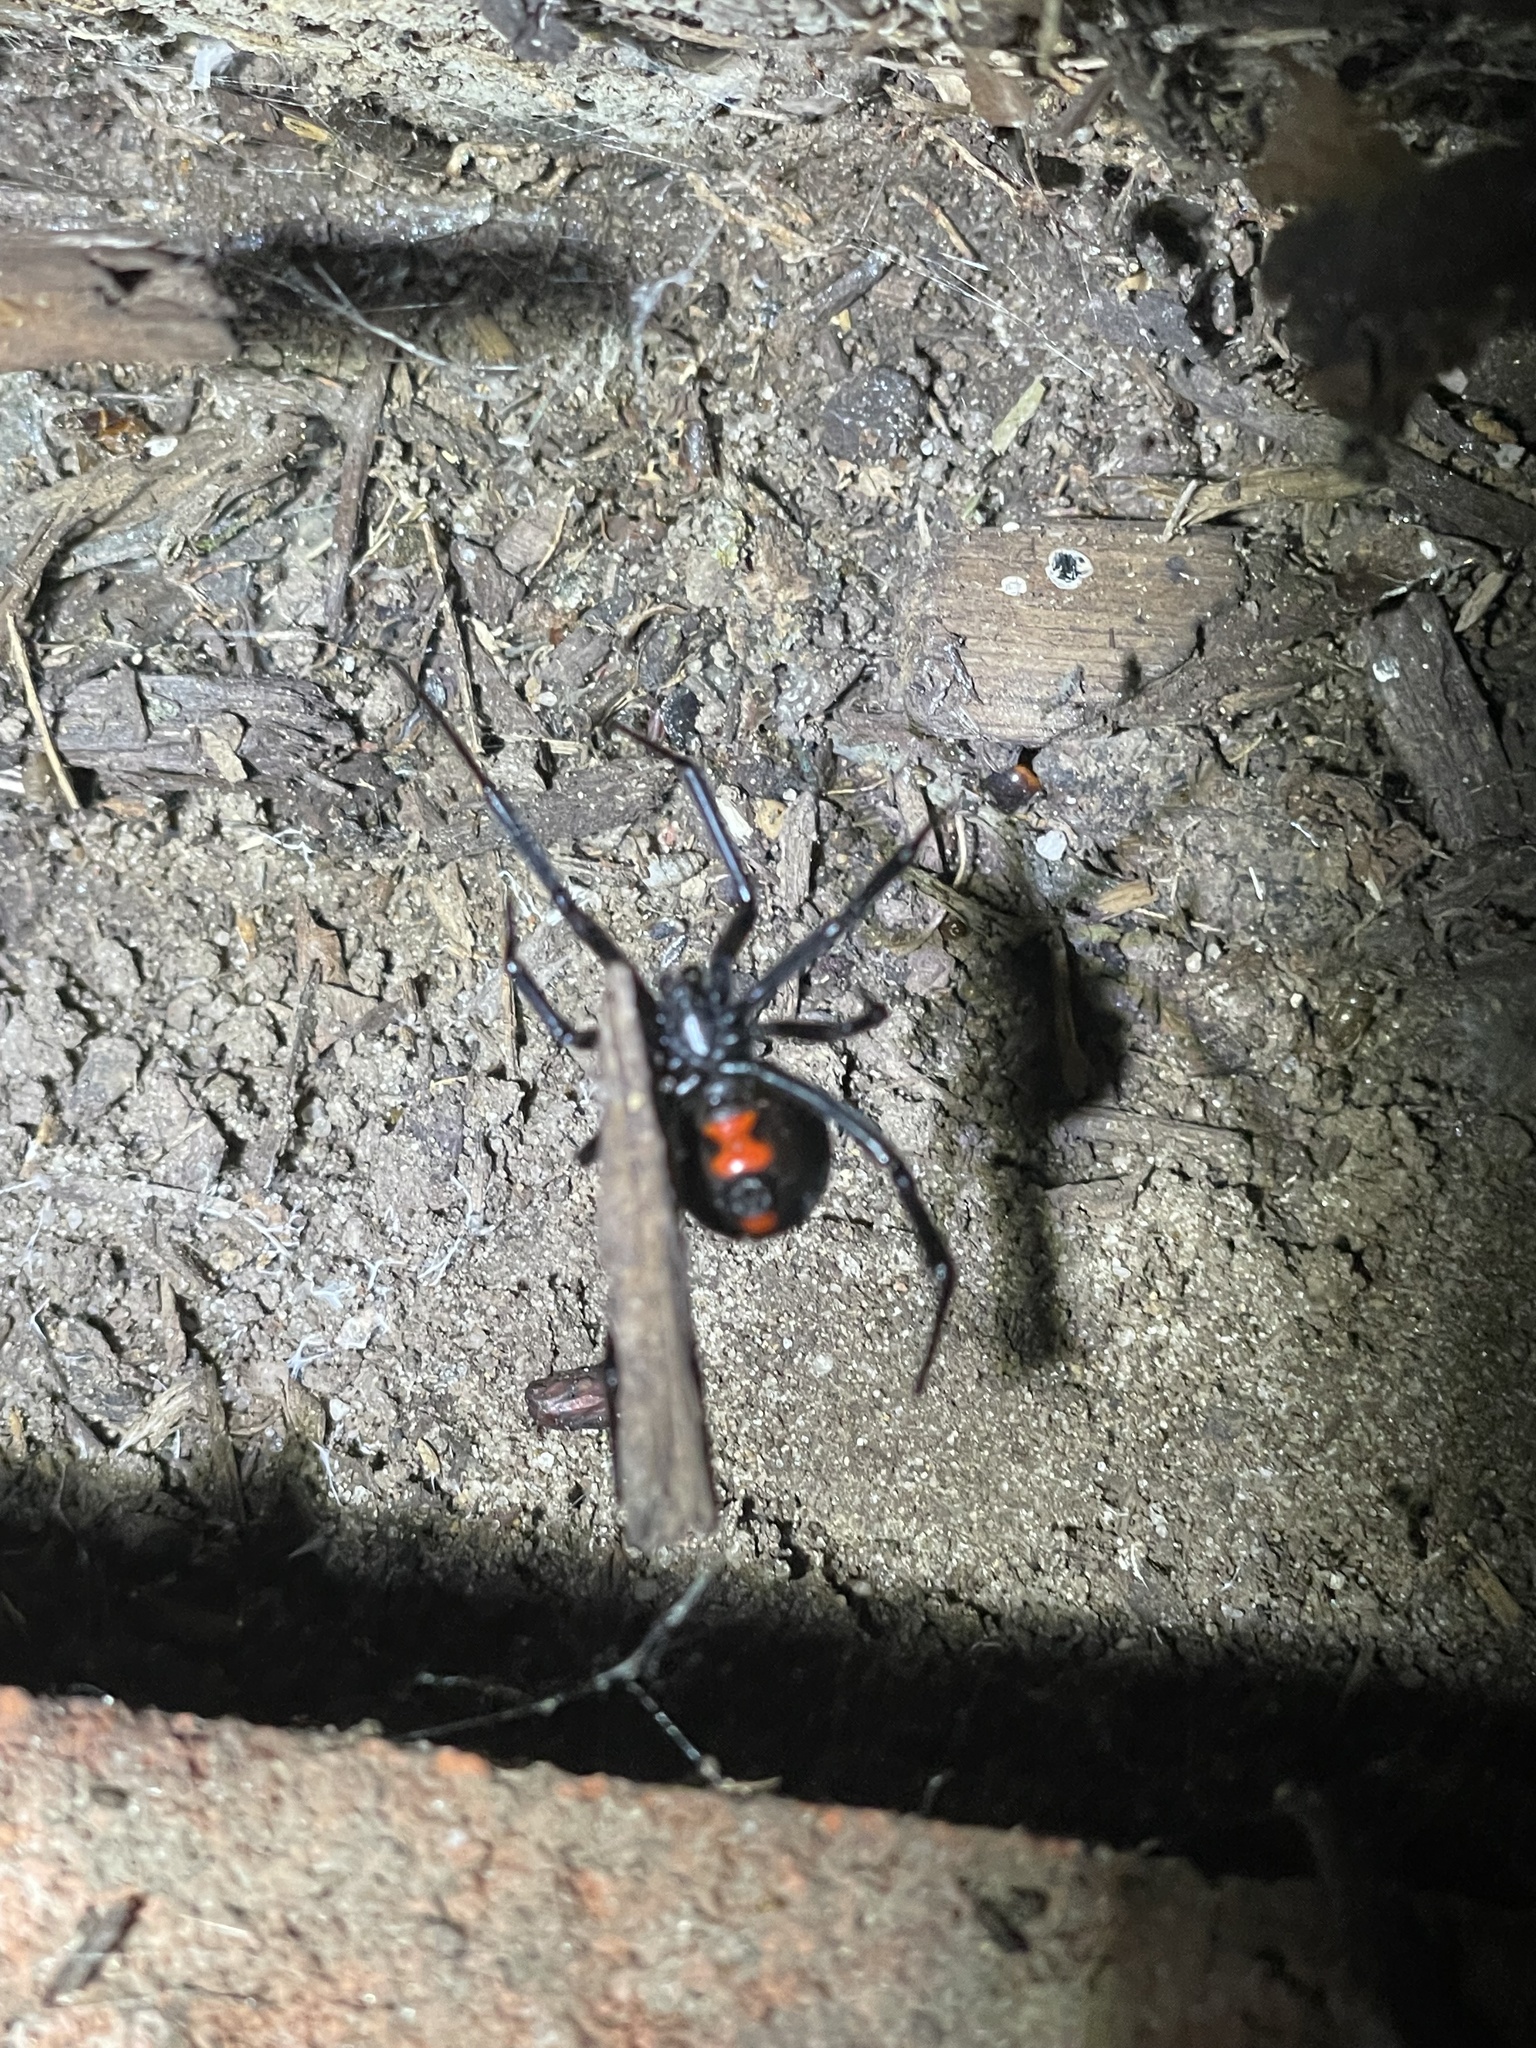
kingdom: Animalia
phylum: Arthropoda
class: Arachnida
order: Araneae
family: Theridiidae
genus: Latrodectus
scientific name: Latrodectus mactans
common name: Cobweb spiders
